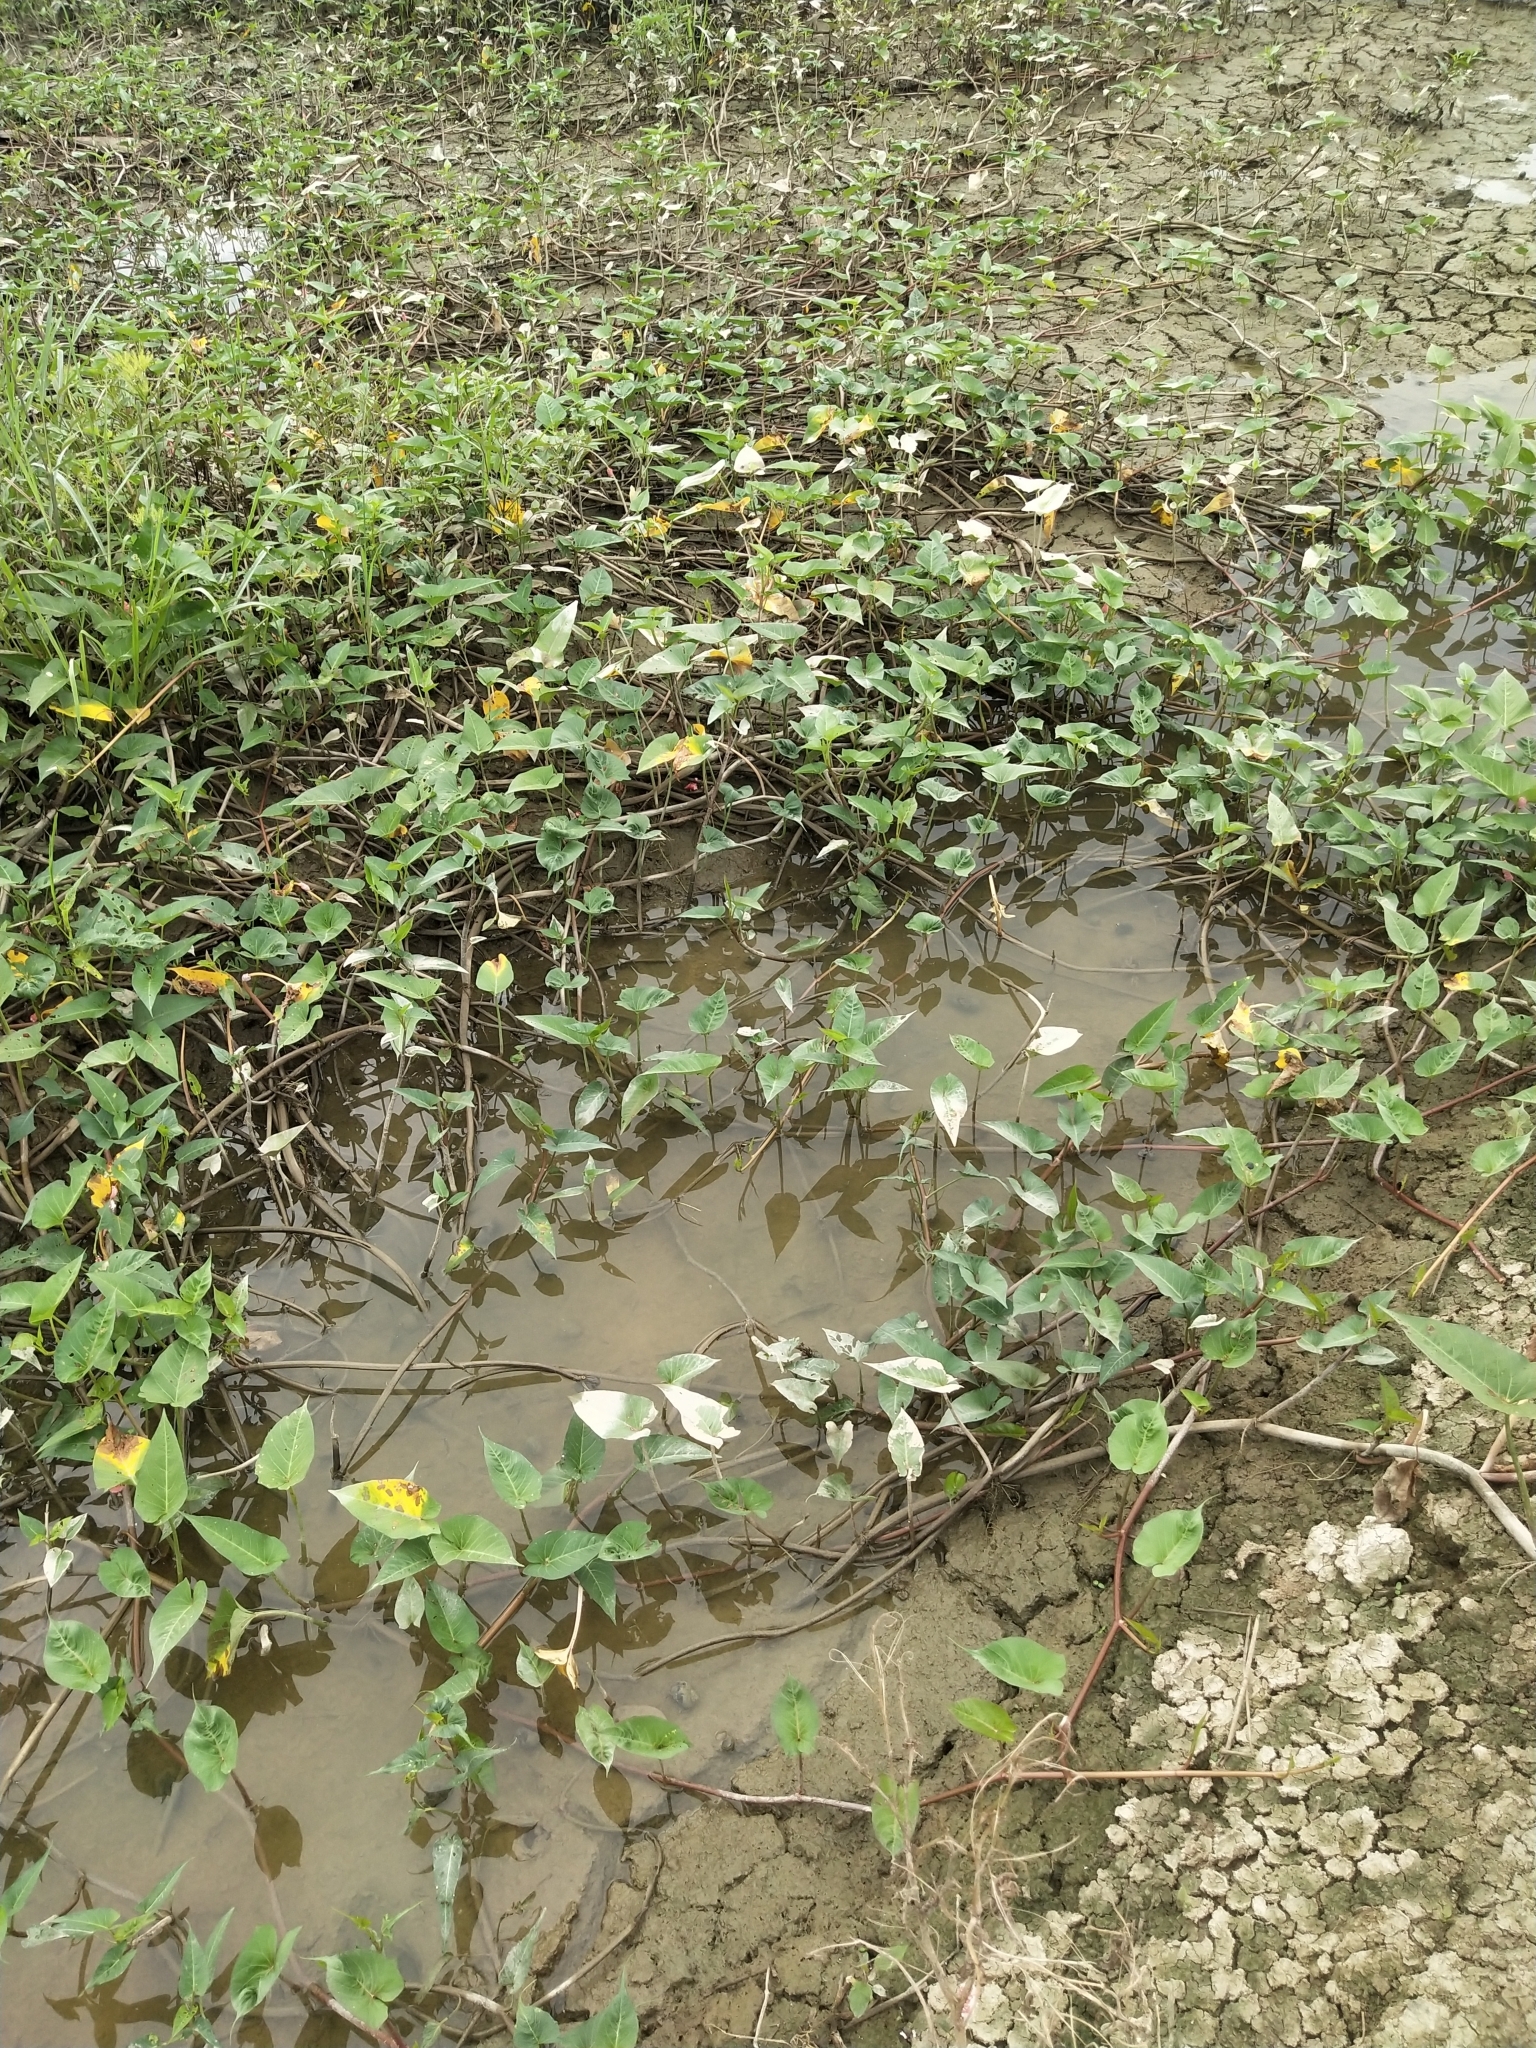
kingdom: Plantae
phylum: Tracheophyta
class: Magnoliopsida
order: Solanales
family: Convolvulaceae
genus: Ipomoea
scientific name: Ipomoea aquatica
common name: Swamp morning-glory
